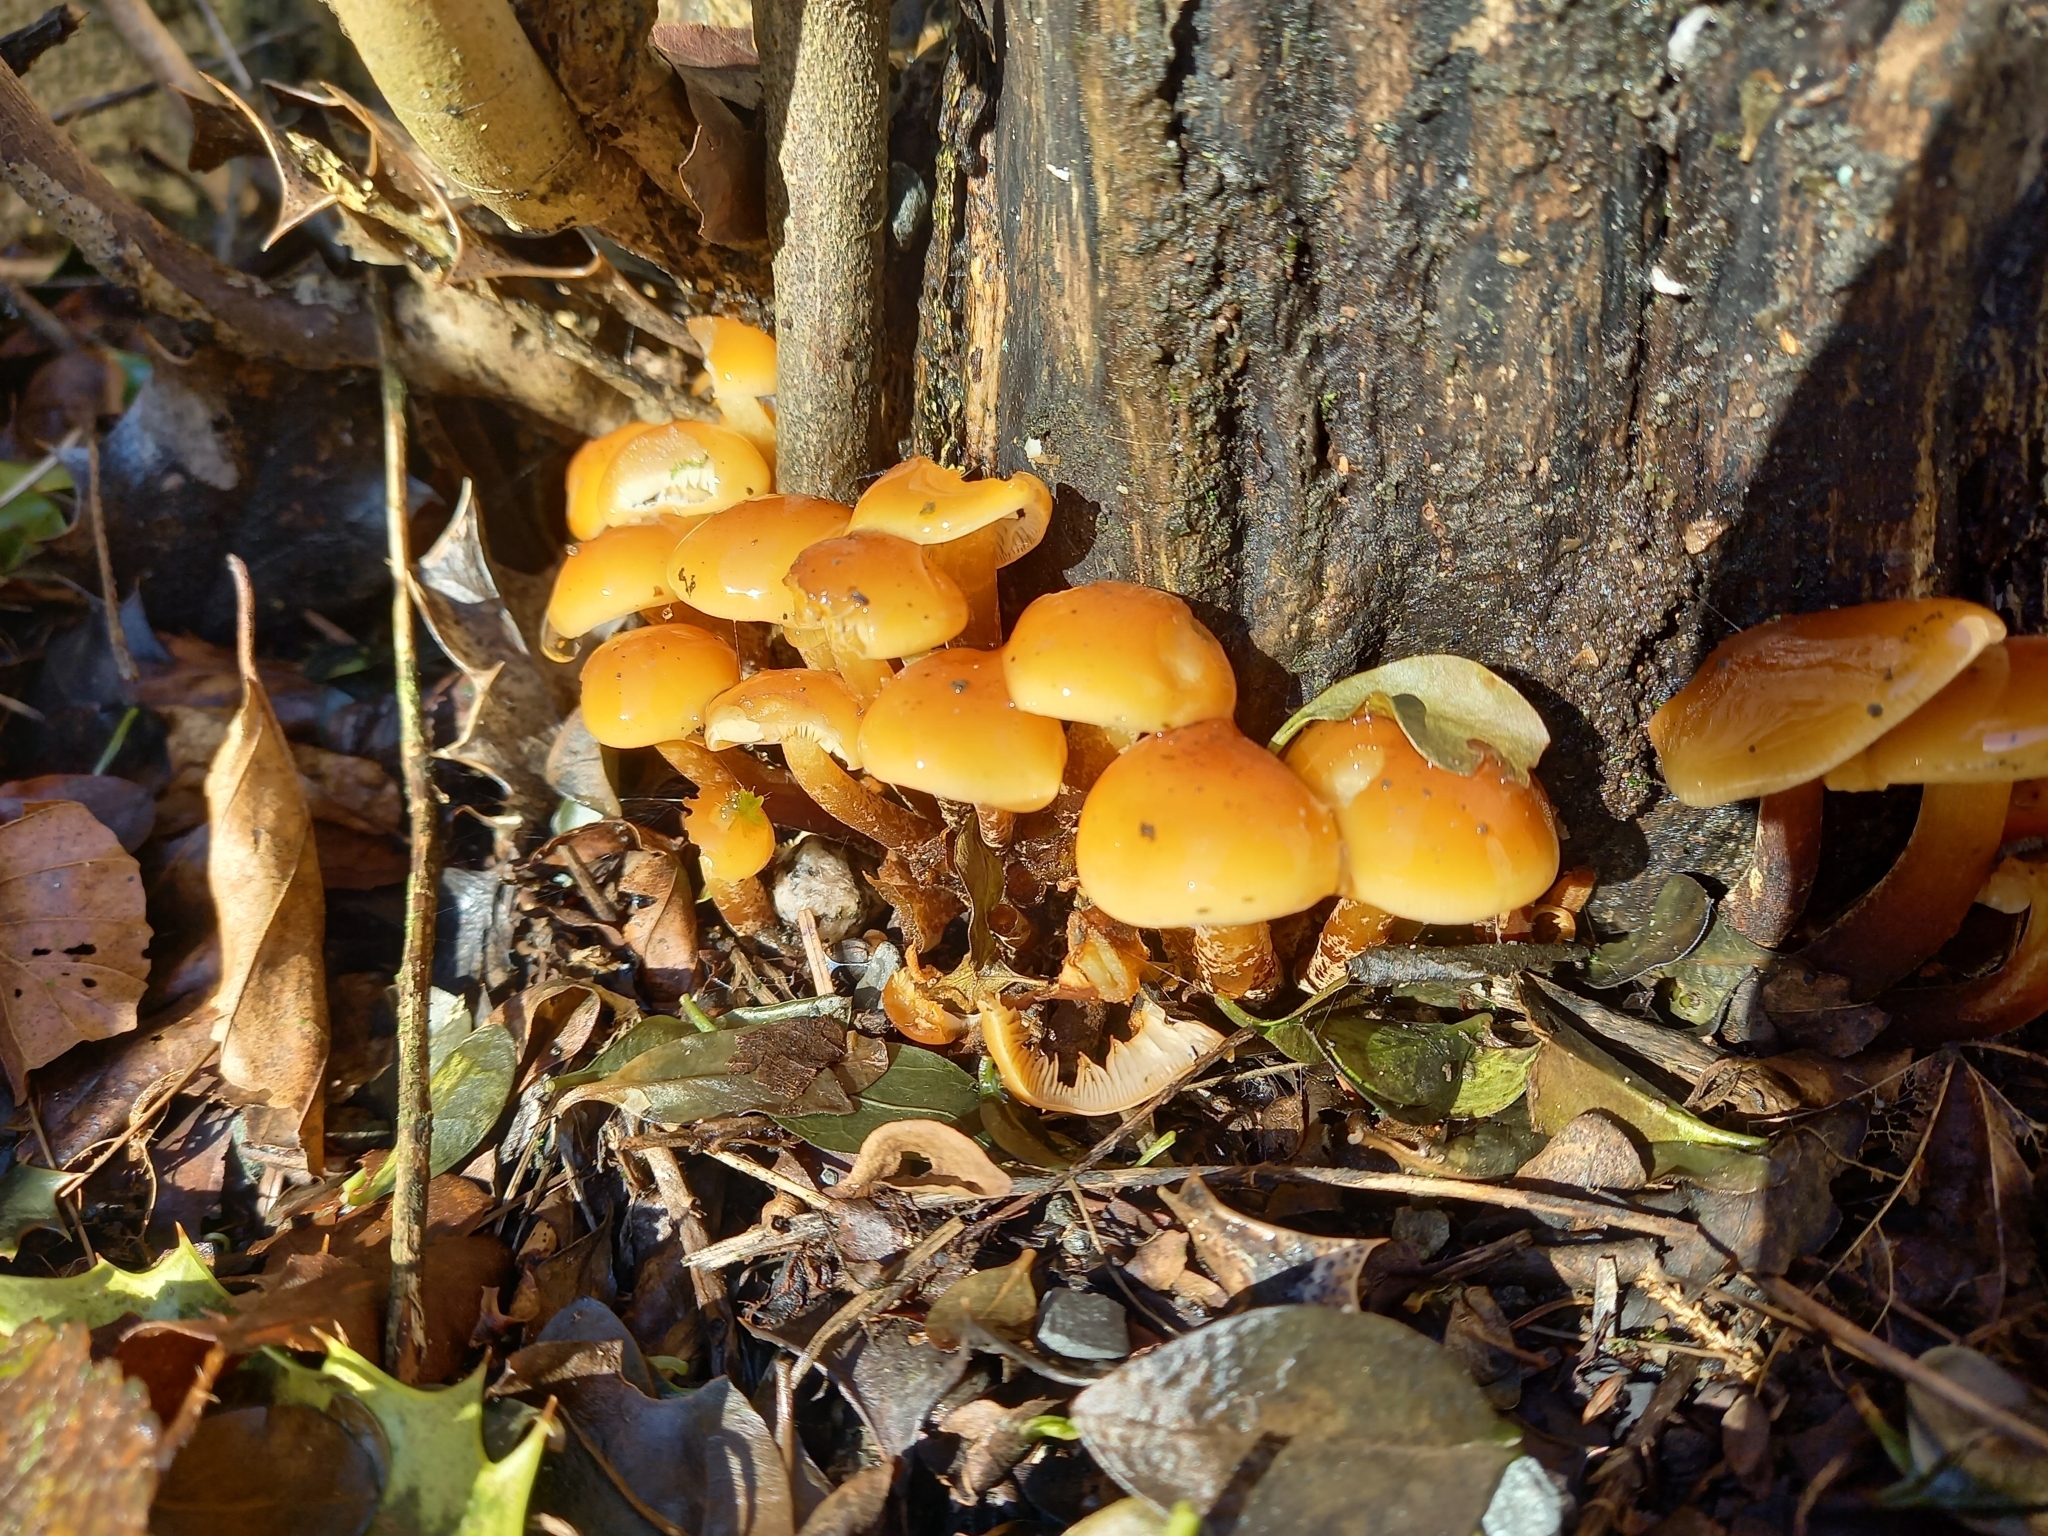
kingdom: Fungi
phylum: Basidiomycota
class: Agaricomycetes
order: Agaricales
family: Physalacriaceae
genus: Flammulina
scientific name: Flammulina
